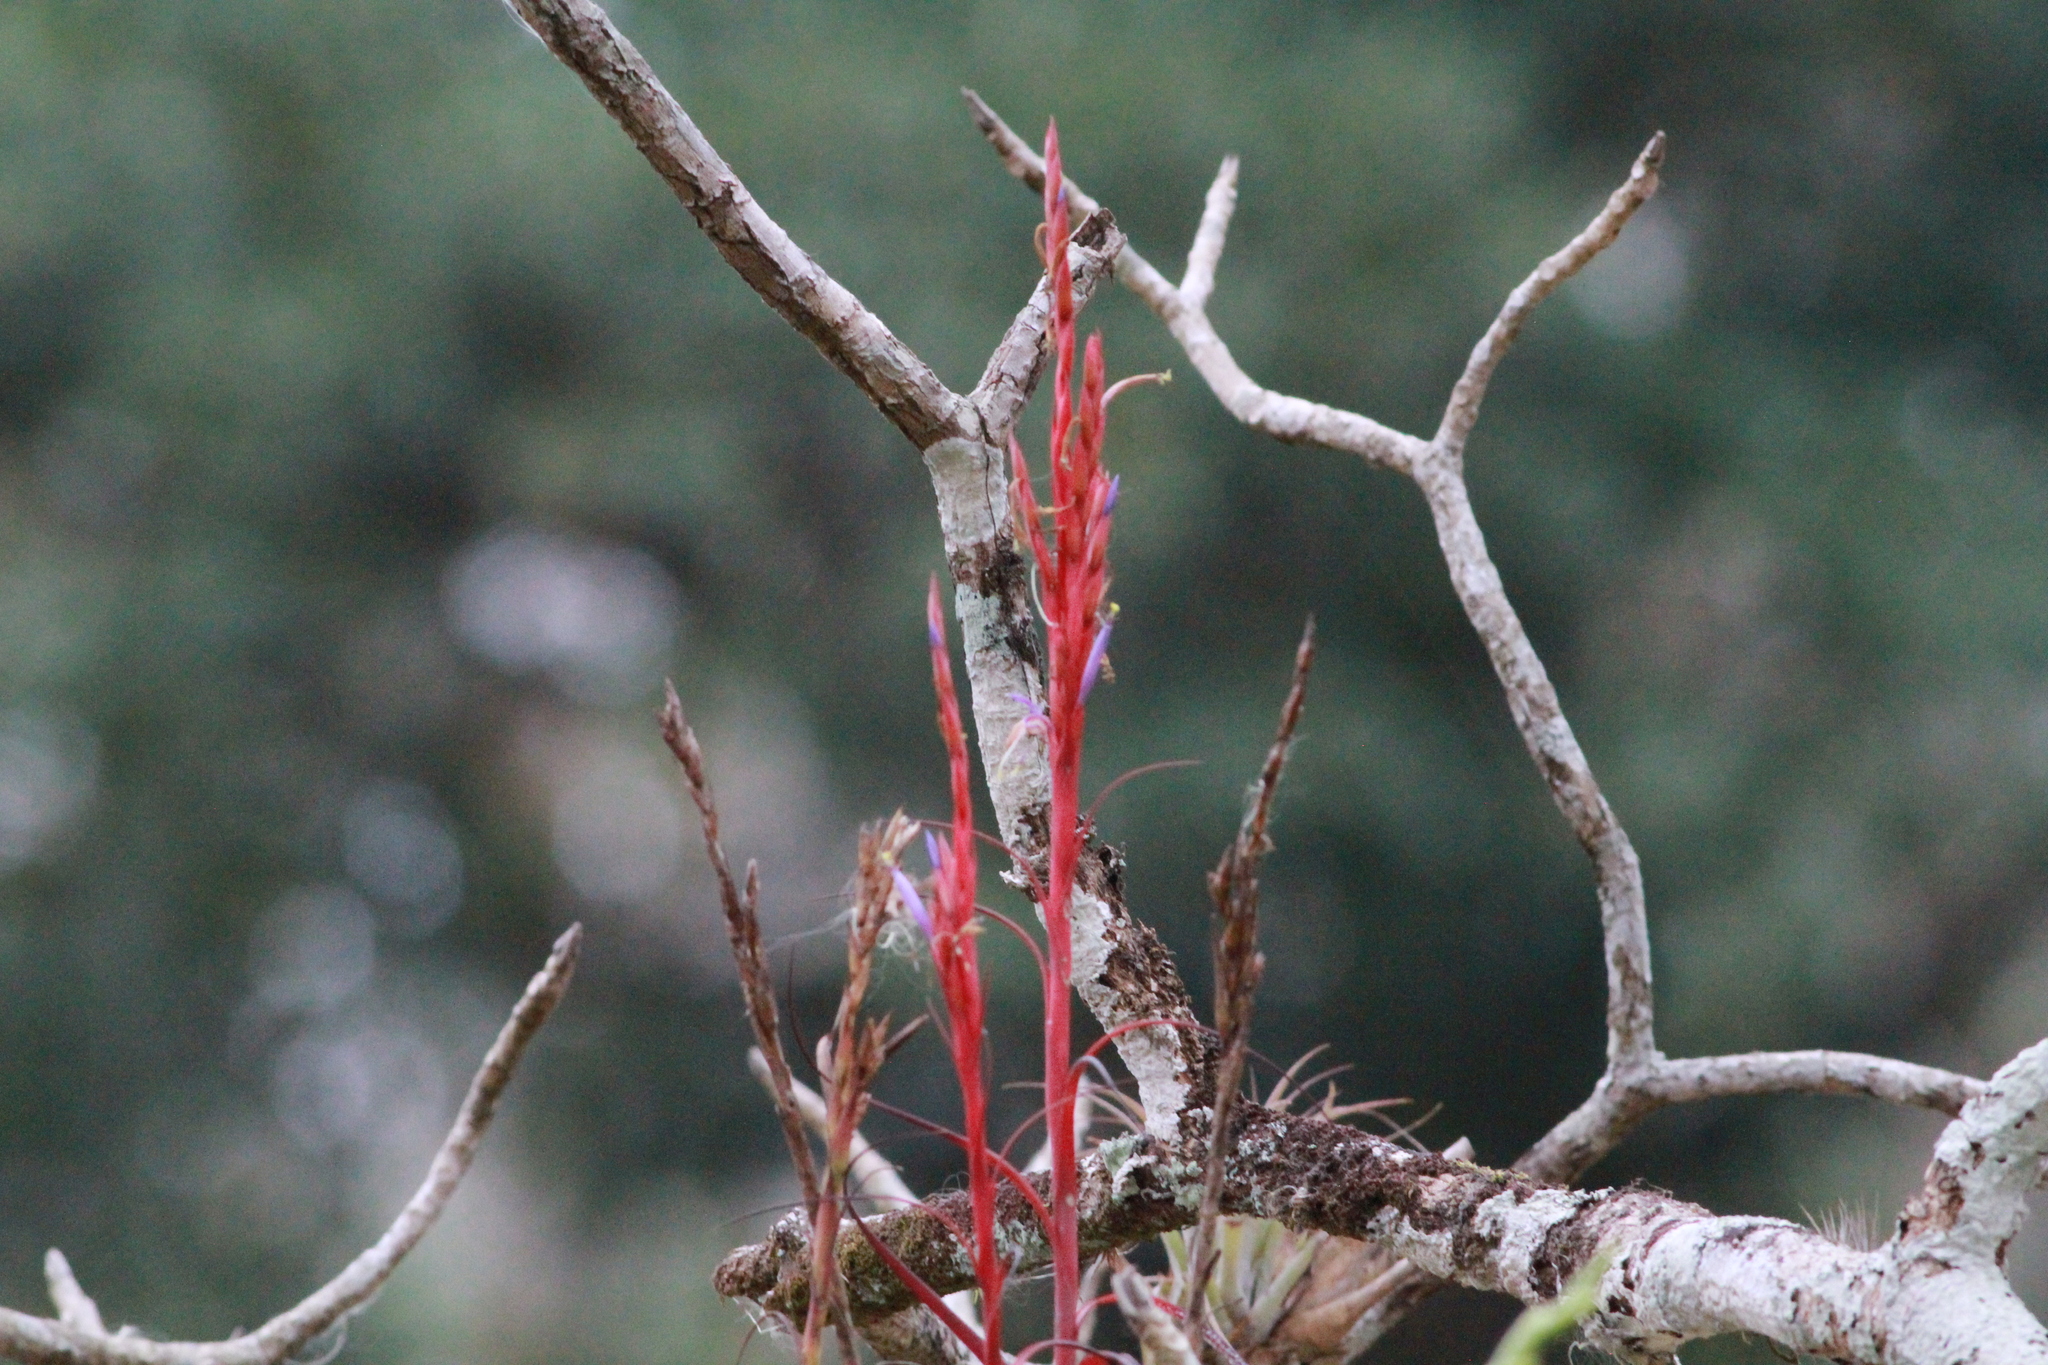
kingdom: Plantae
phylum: Tracheophyta
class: Liliopsida
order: Poales
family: Bromeliaceae
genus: Tillandsia
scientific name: Tillandsia polystachia
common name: Airplant
